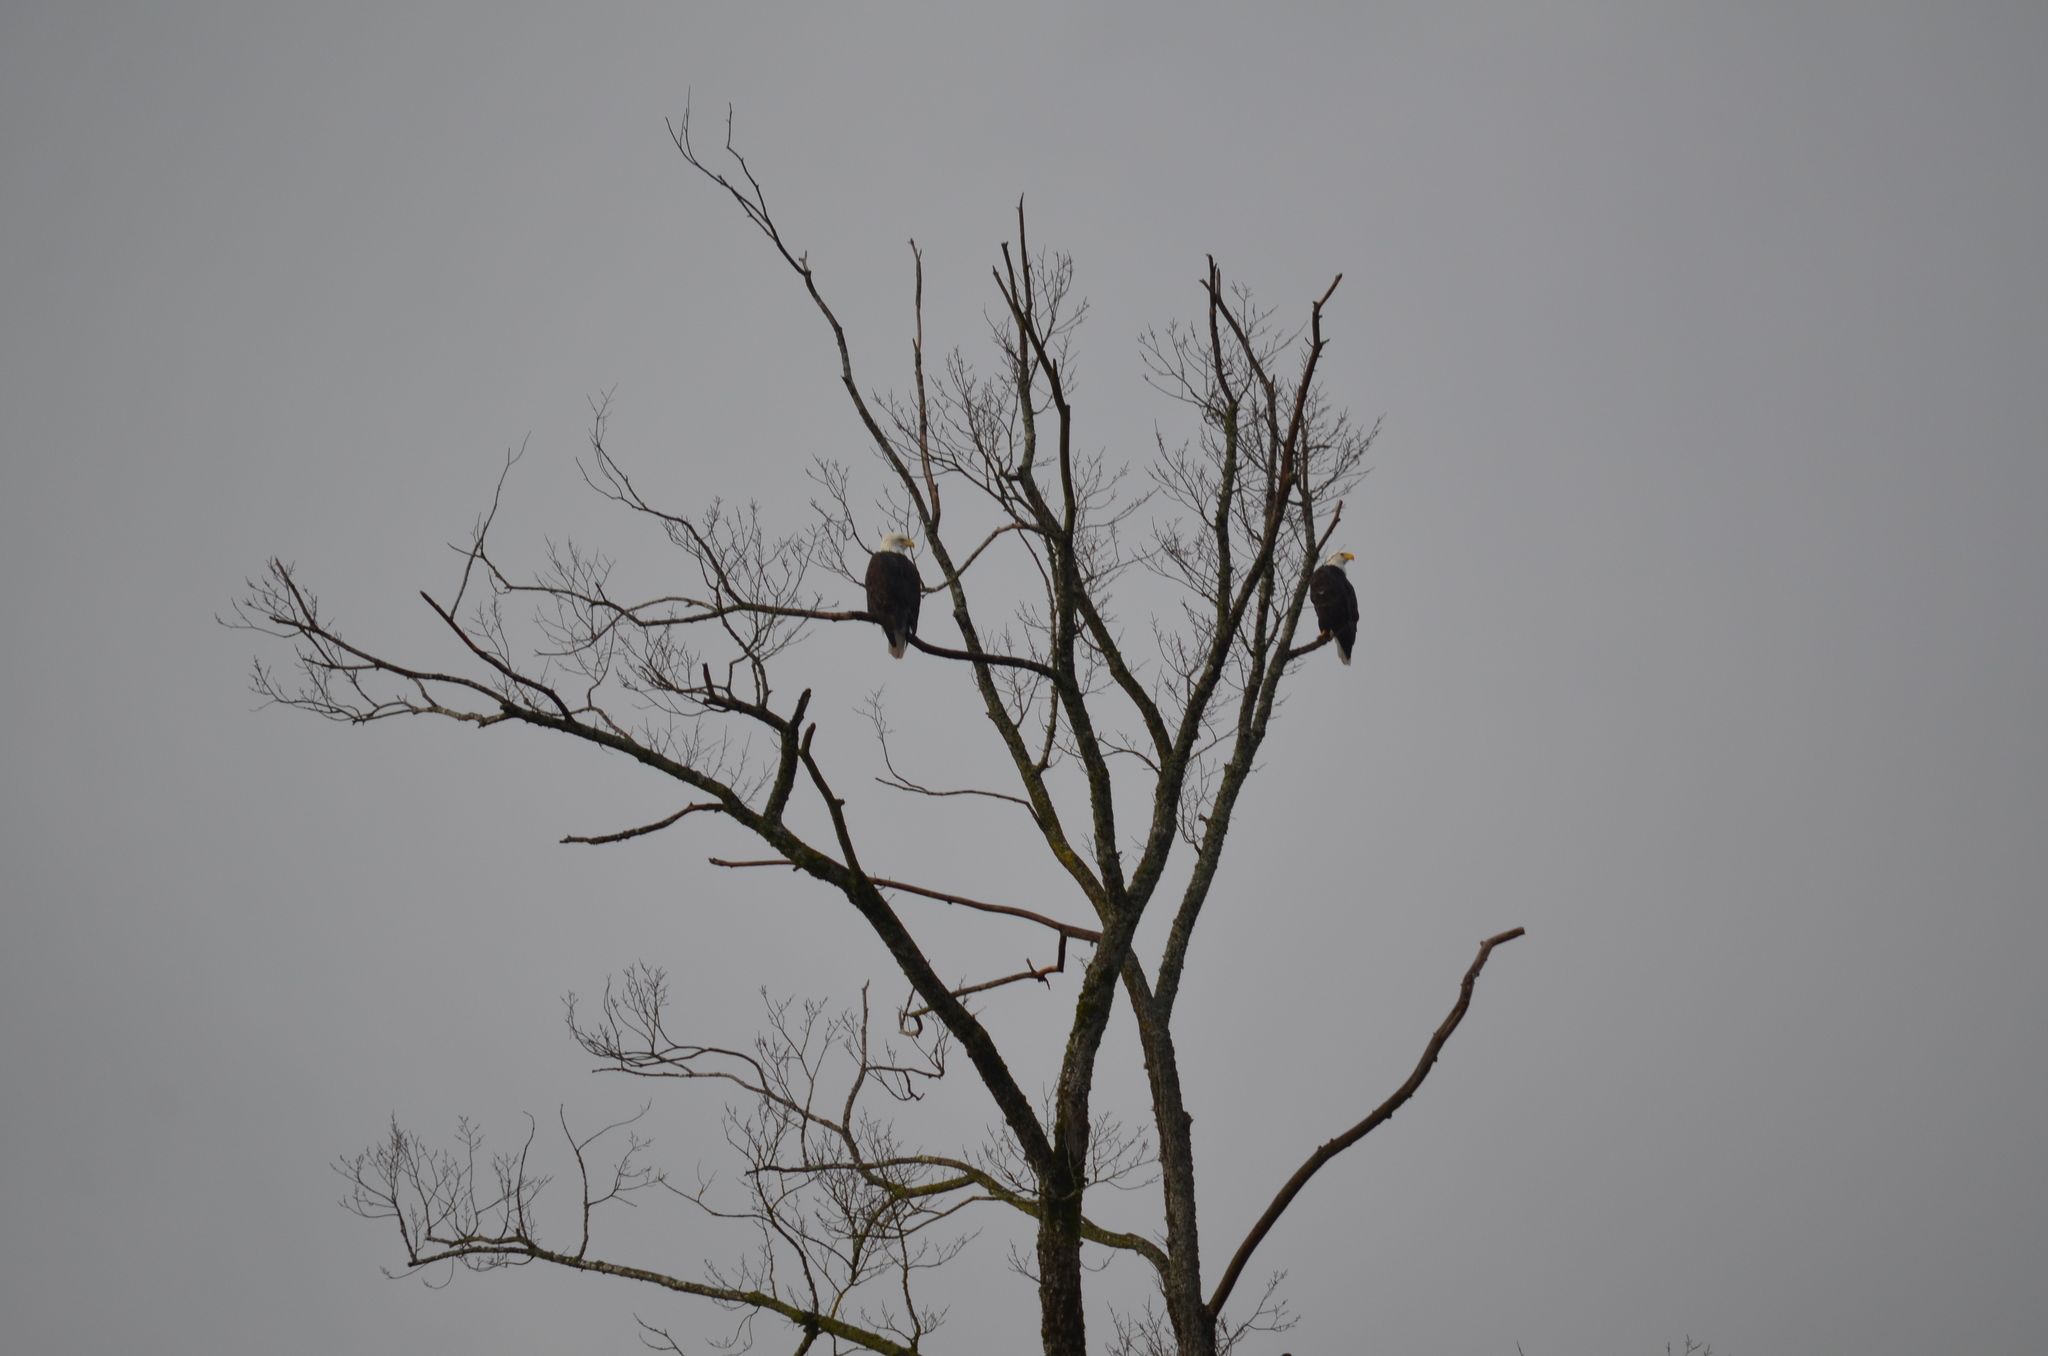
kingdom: Animalia
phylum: Chordata
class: Aves
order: Accipitriformes
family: Accipitridae
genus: Haliaeetus
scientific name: Haliaeetus leucocephalus
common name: Bald eagle
